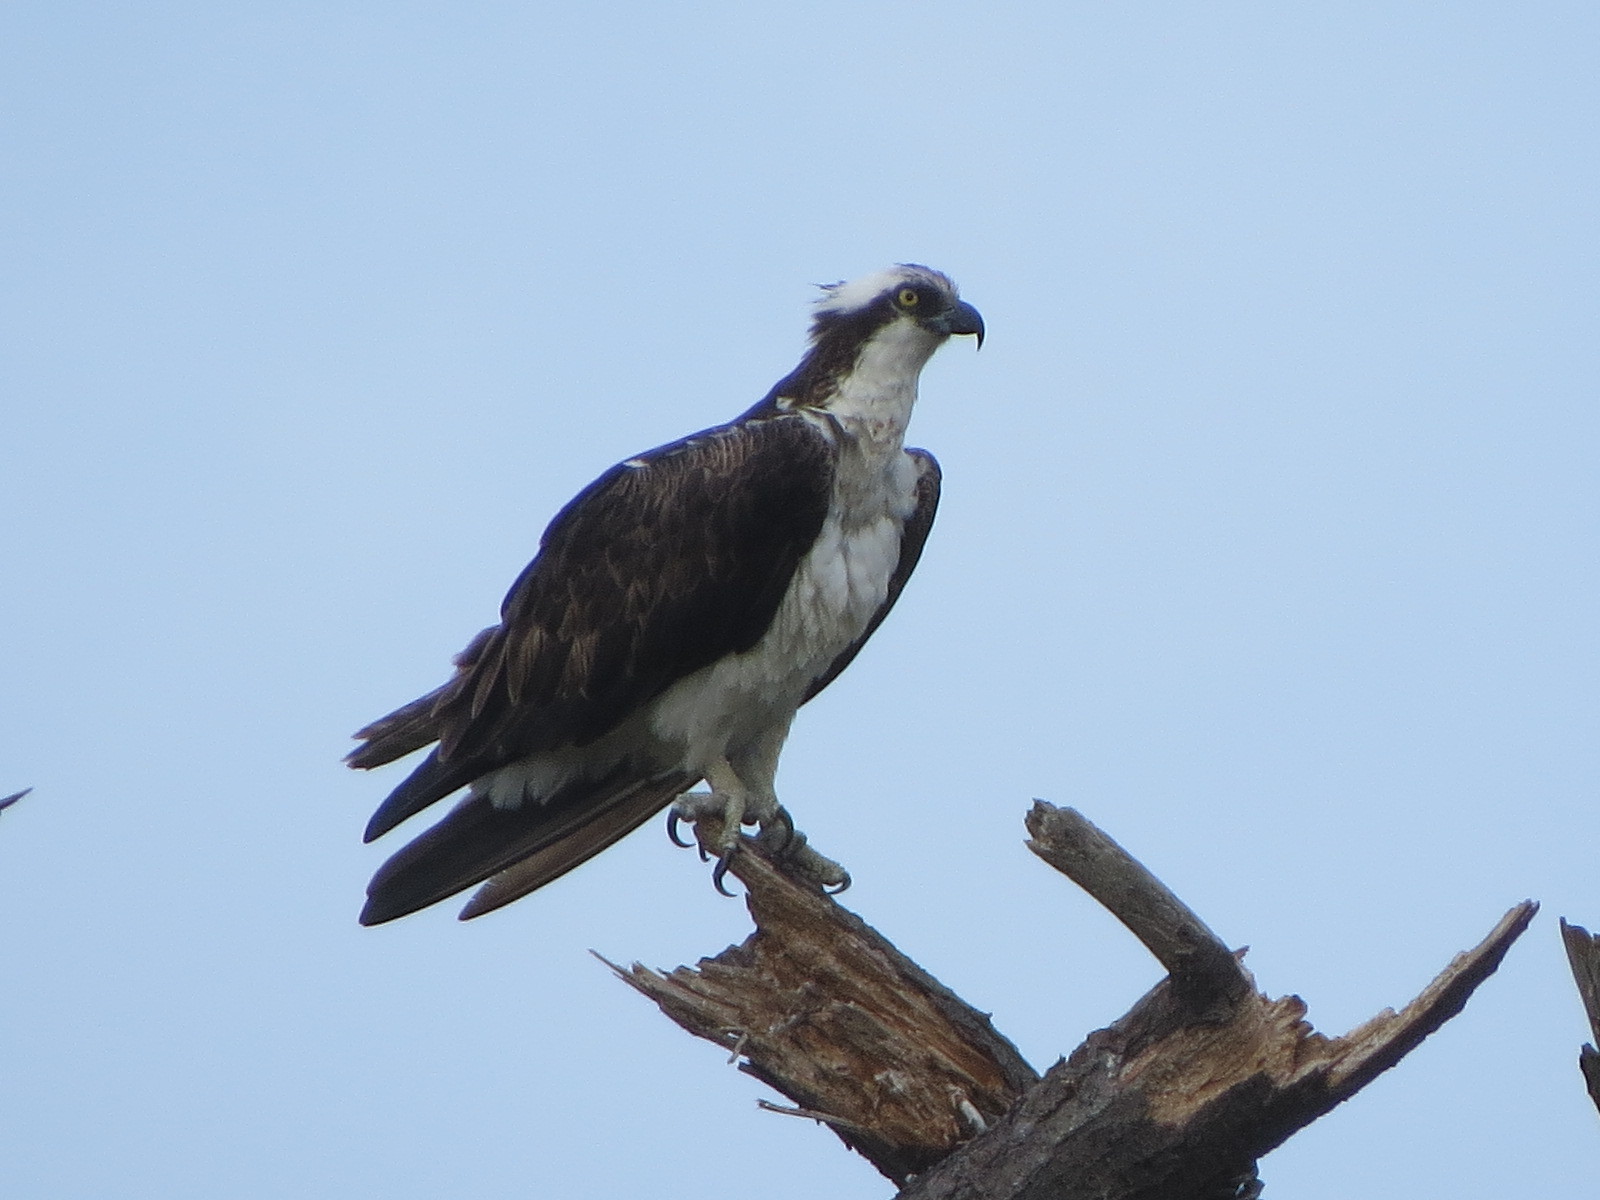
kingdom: Animalia
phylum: Chordata
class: Aves
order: Accipitriformes
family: Pandionidae
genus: Pandion
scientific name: Pandion haliaetus
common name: Osprey
